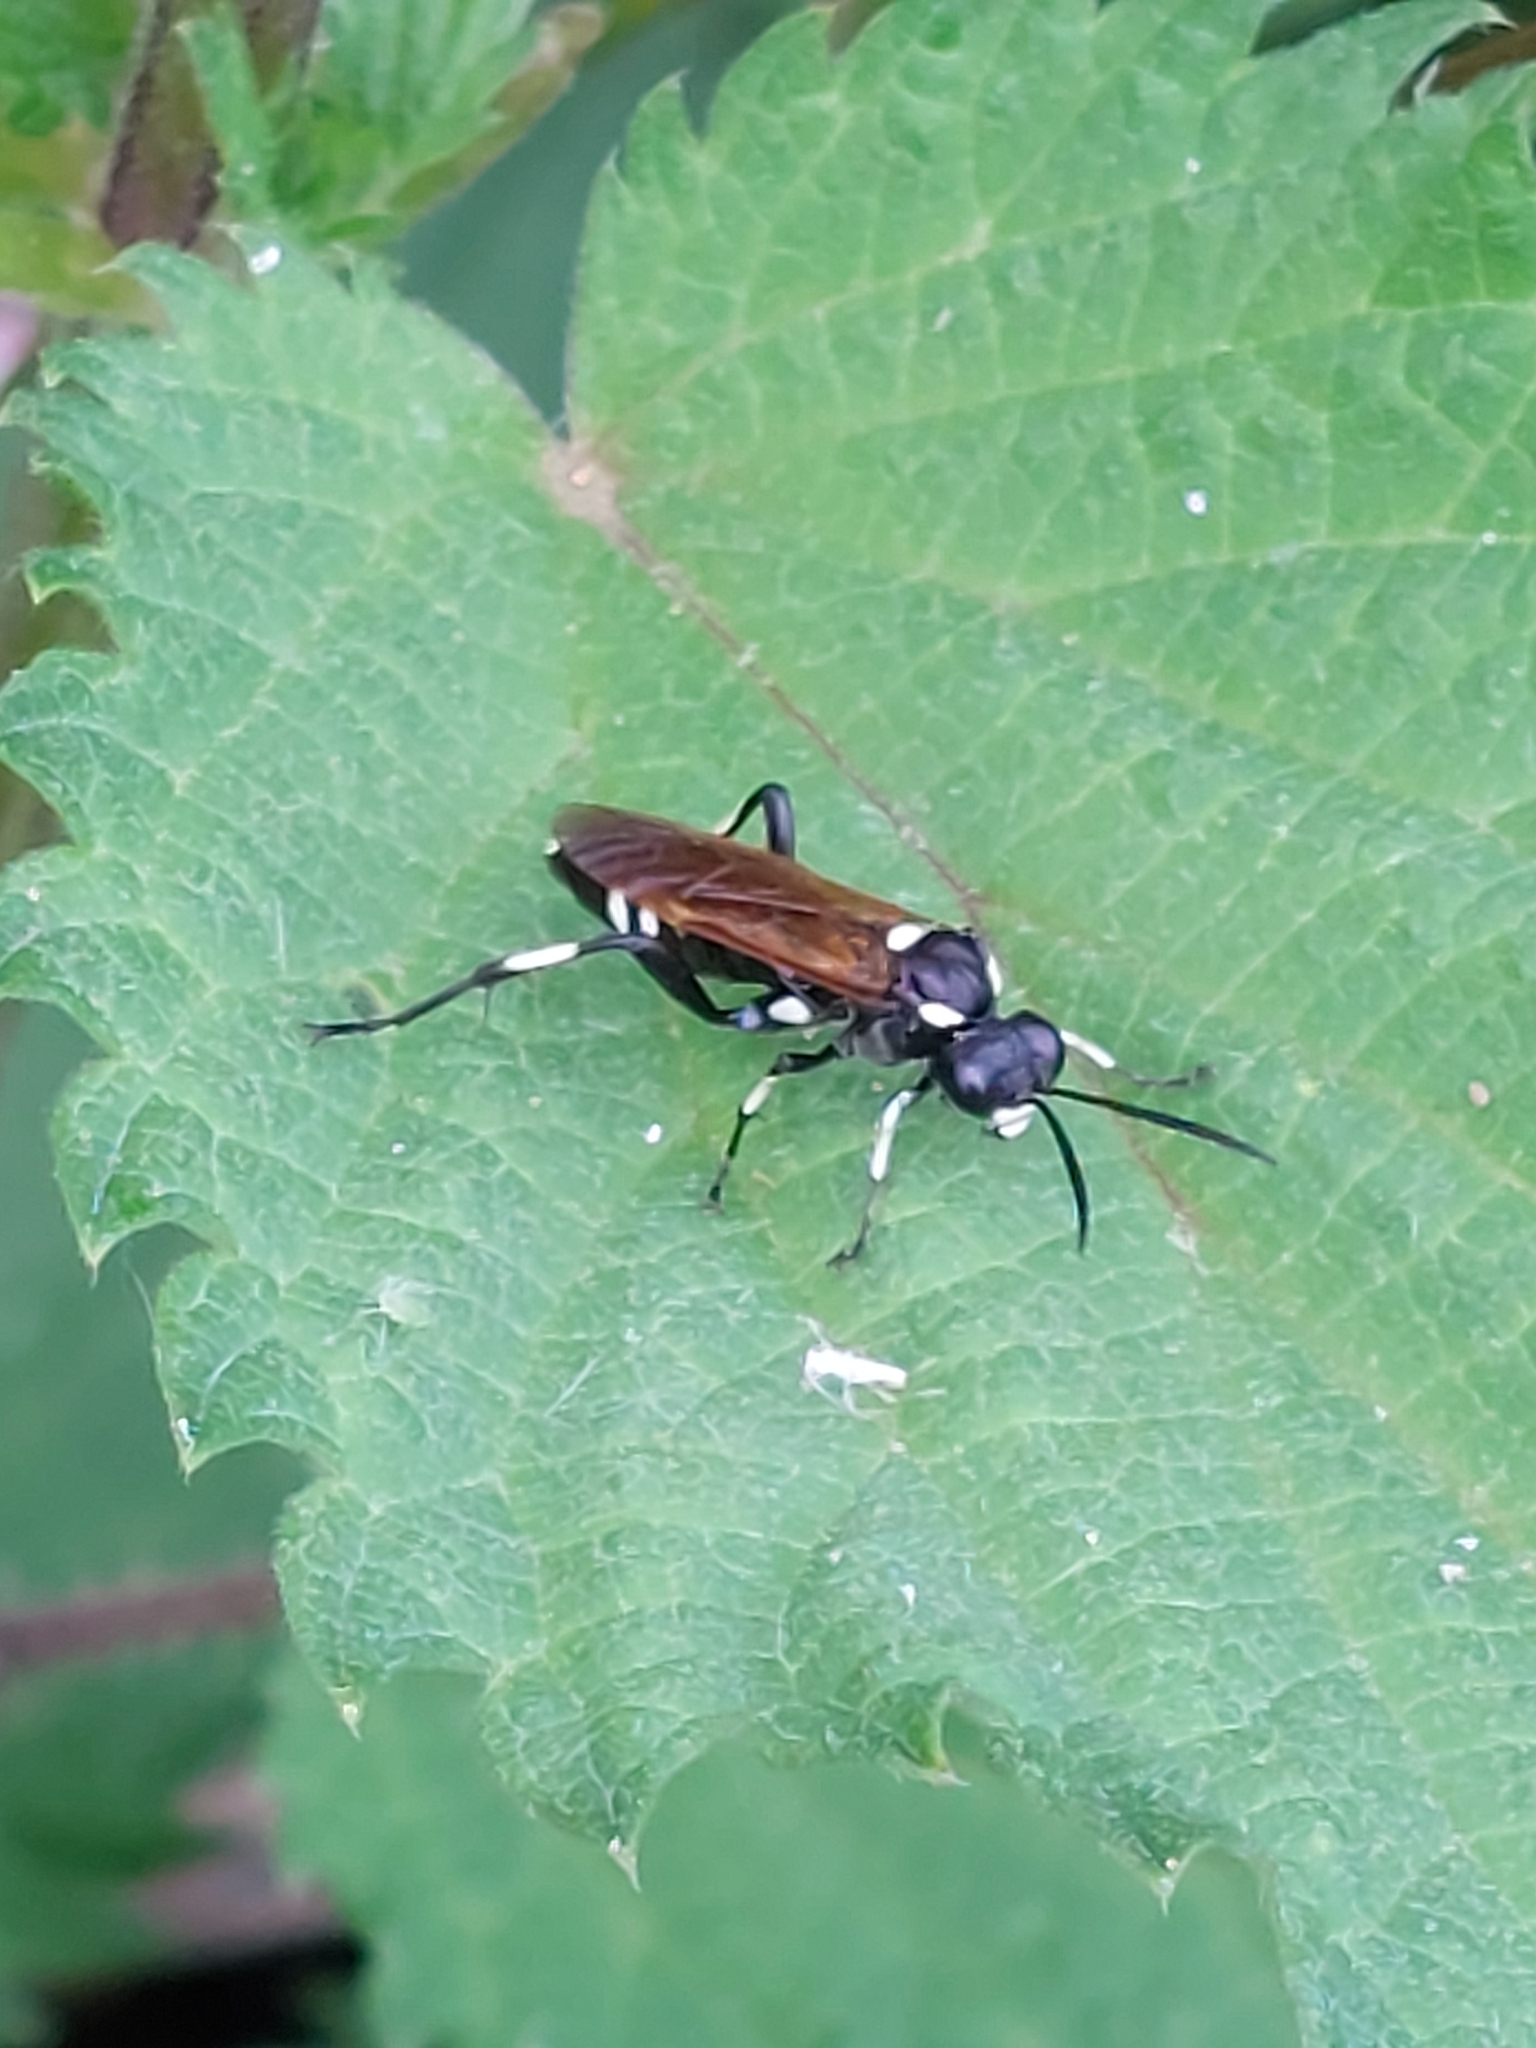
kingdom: Animalia
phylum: Arthropoda
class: Insecta
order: Hymenoptera
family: Tenthredinidae
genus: Macrophya
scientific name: Macrophya duodecimpunctata
